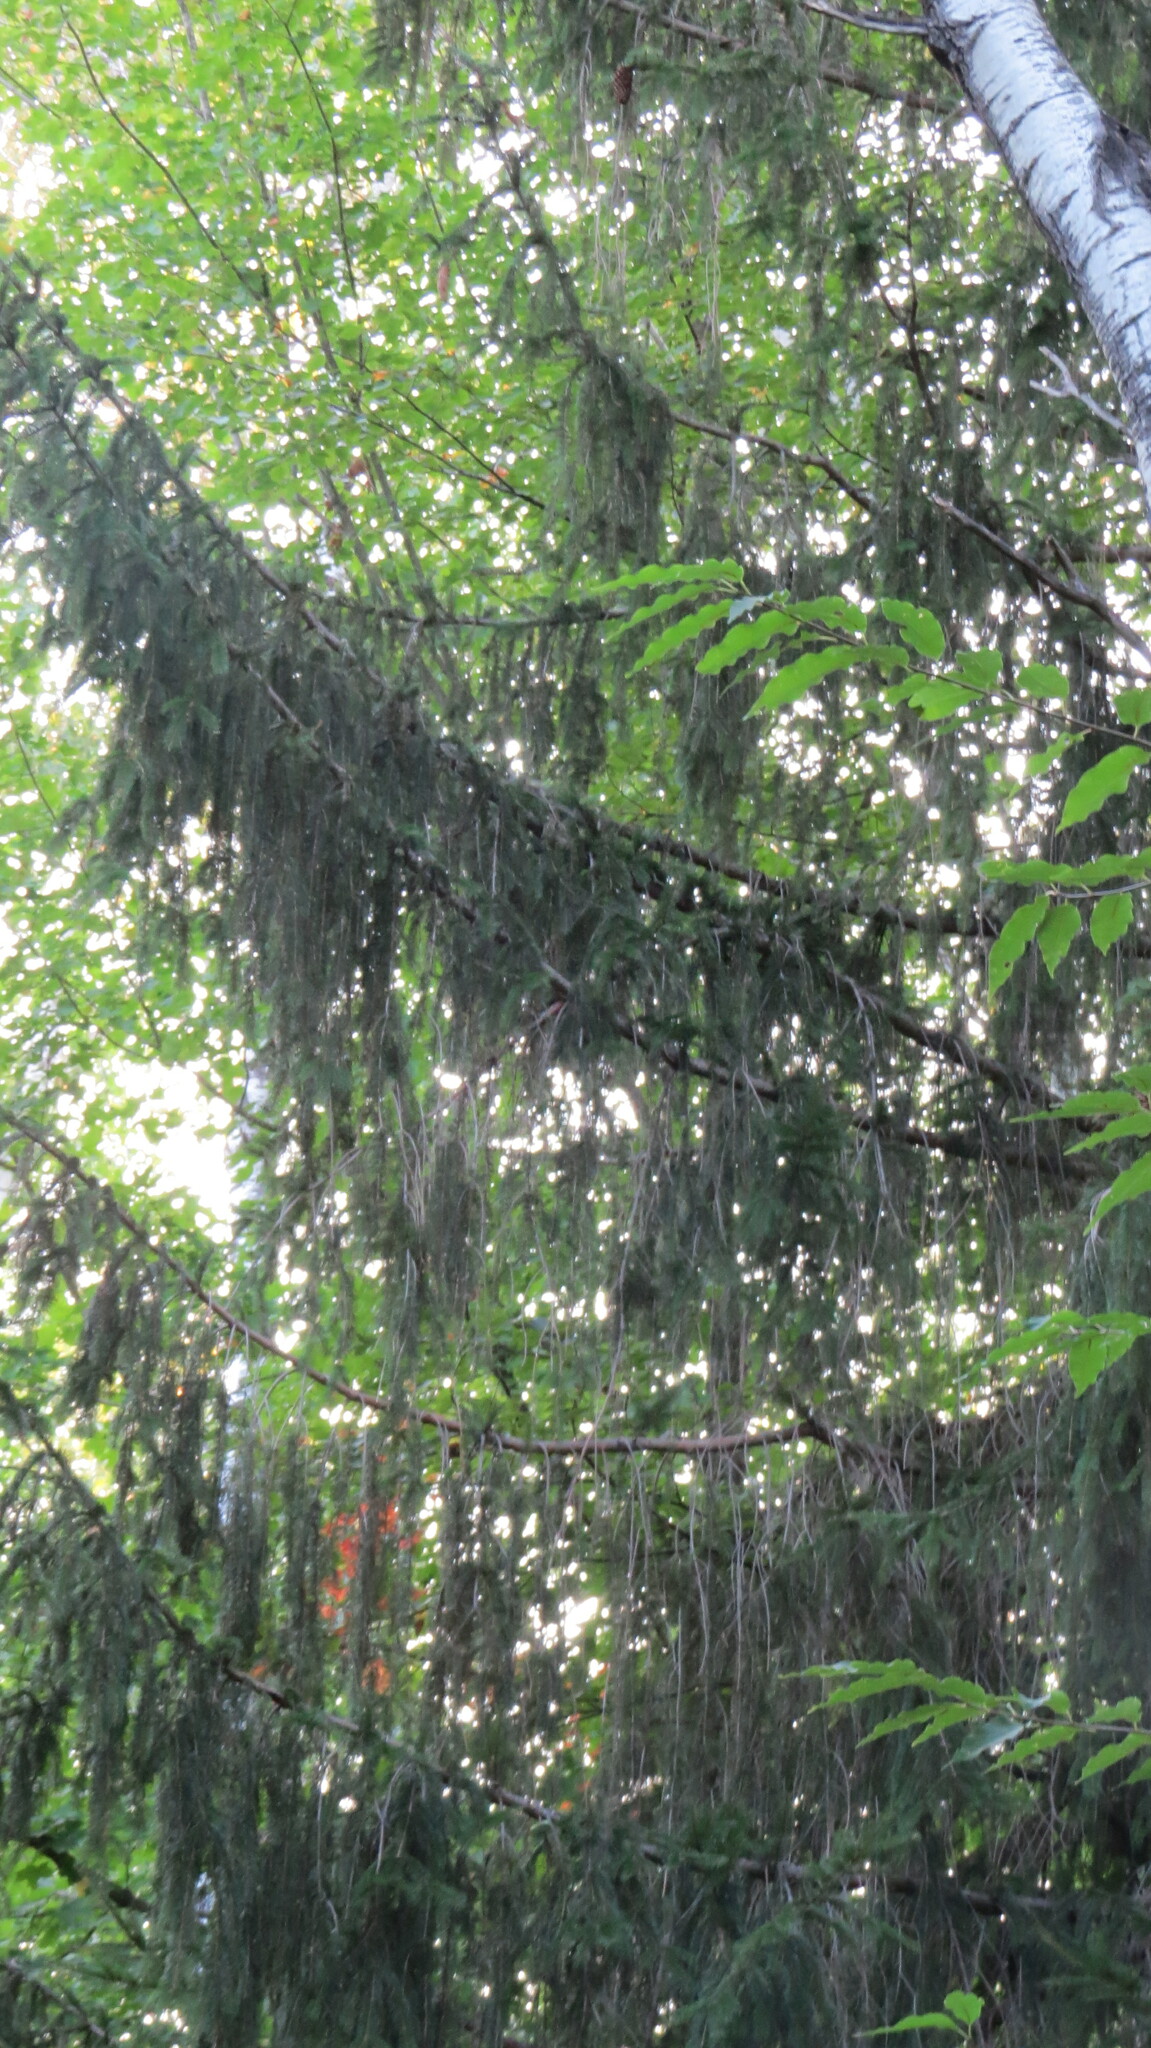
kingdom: Plantae
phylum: Tracheophyta
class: Pinopsida
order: Pinales
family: Pinaceae
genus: Picea
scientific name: Picea abies
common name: Norway spruce
